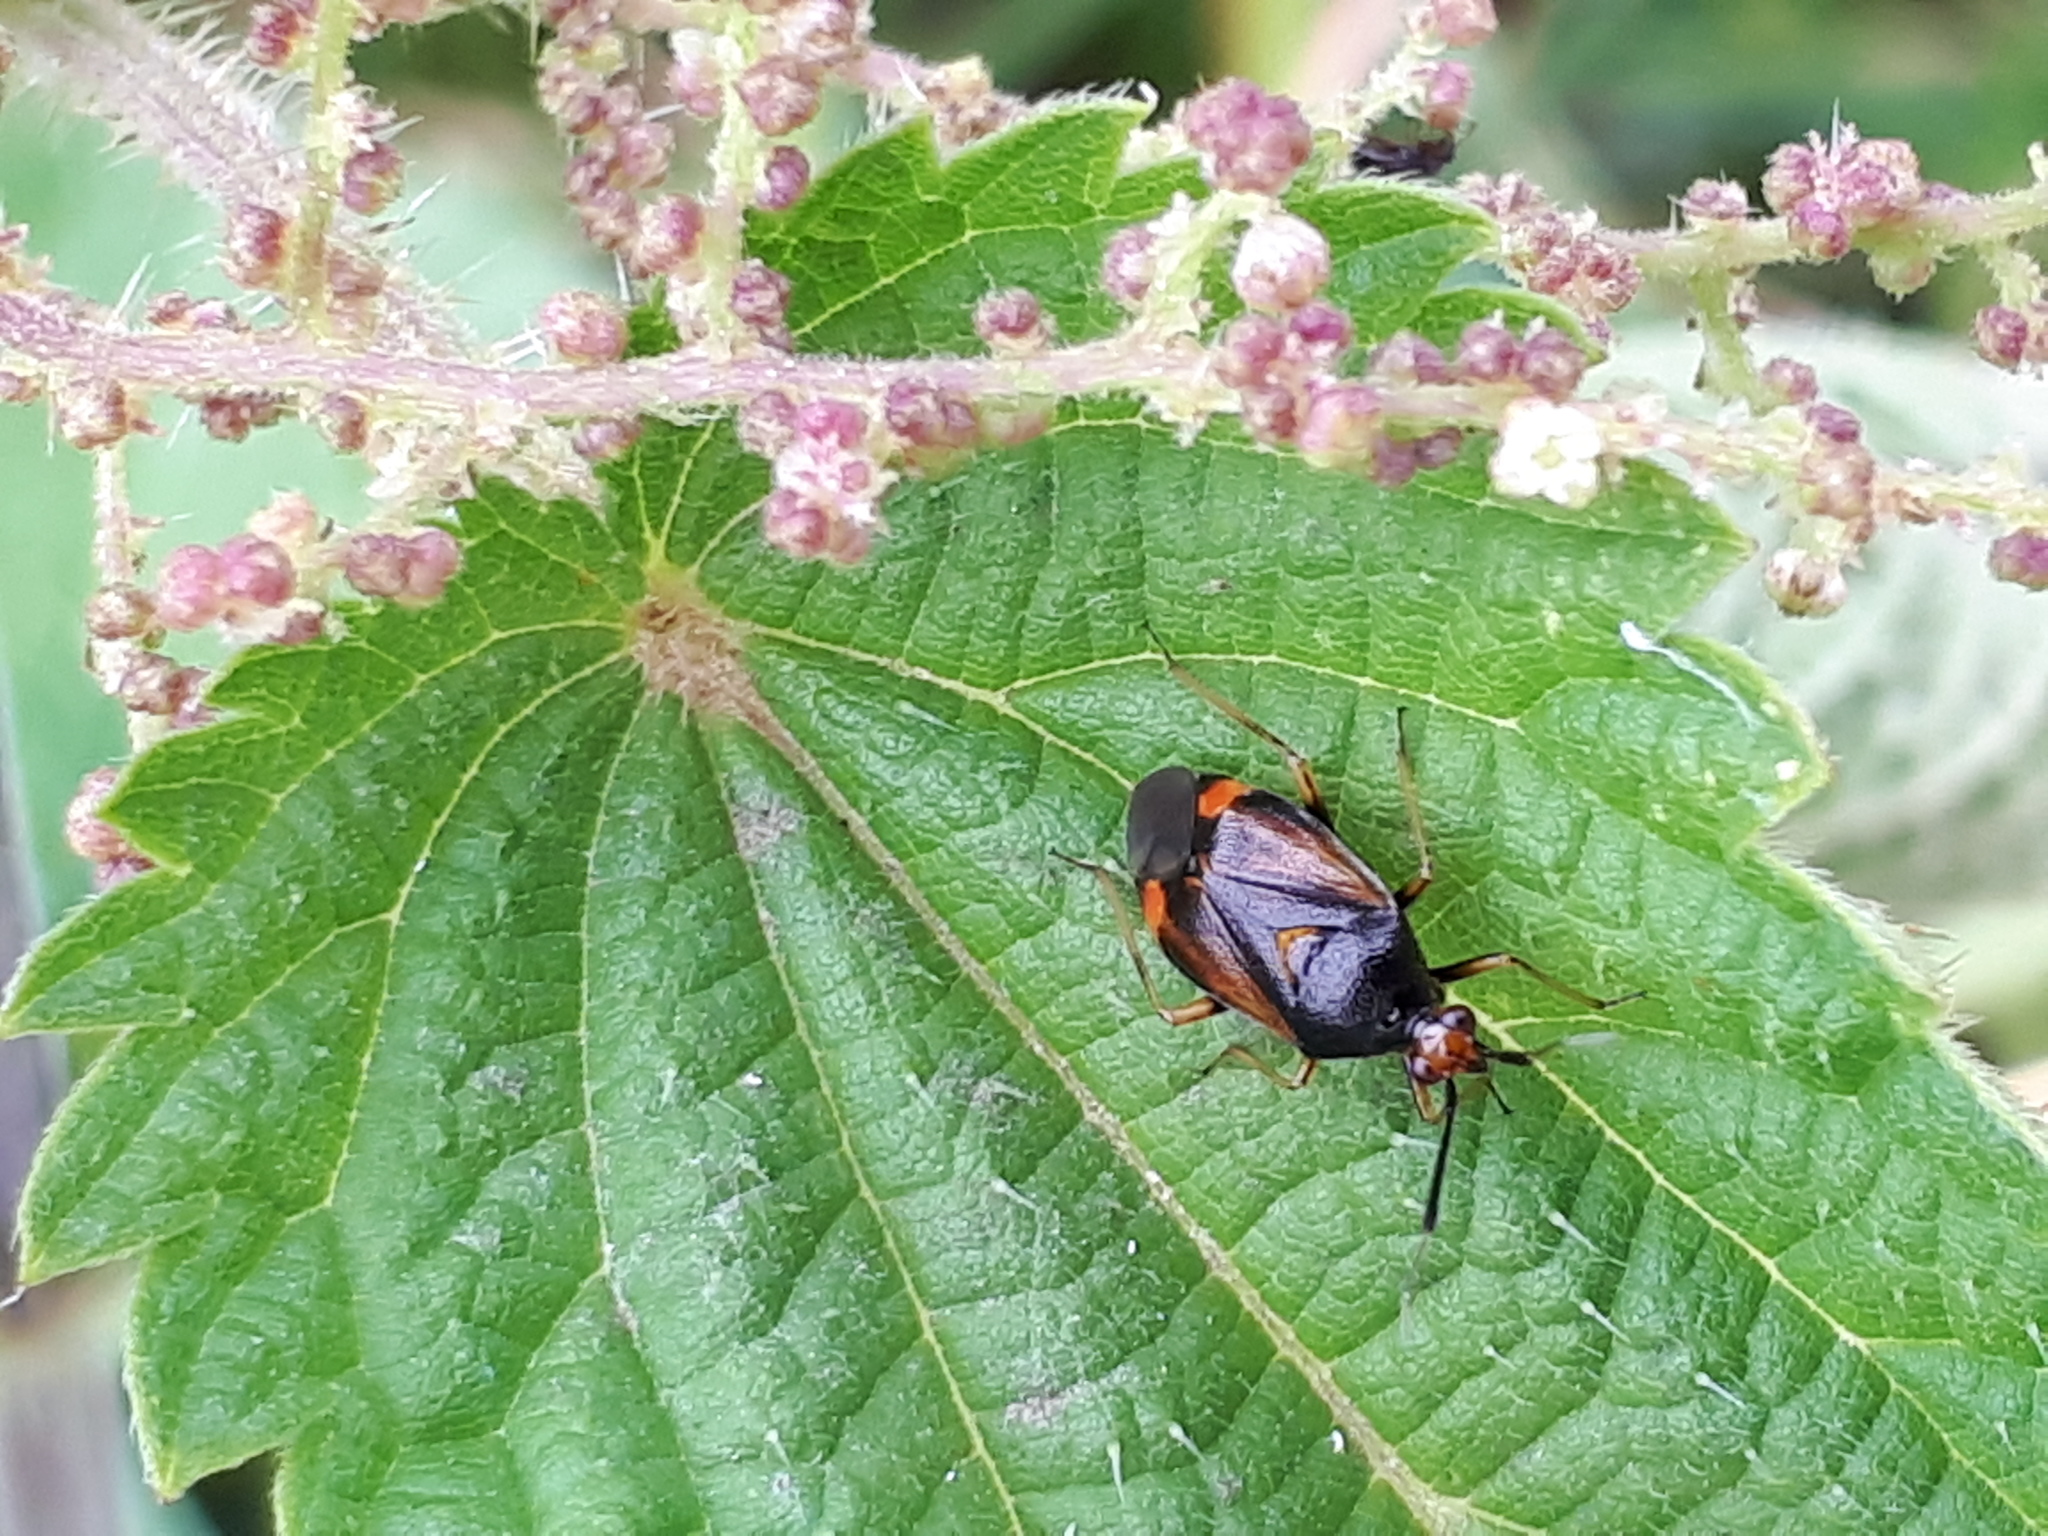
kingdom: Animalia
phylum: Arthropoda
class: Insecta
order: Hemiptera
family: Miridae
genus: Deraeocoris
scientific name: Deraeocoris ruber
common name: Plant bug
